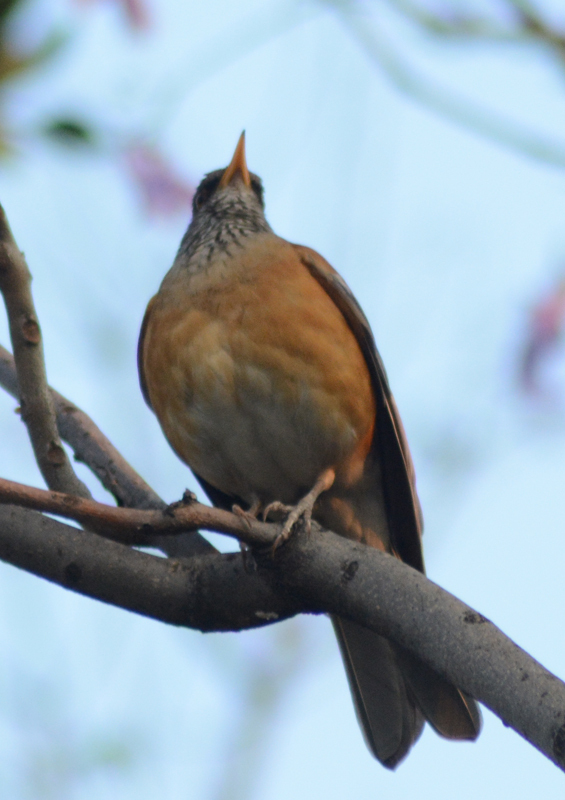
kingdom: Animalia
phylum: Chordata
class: Aves
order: Passeriformes
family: Turdidae
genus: Turdus
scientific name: Turdus rufopalliatus
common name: Rufous-backed robin
